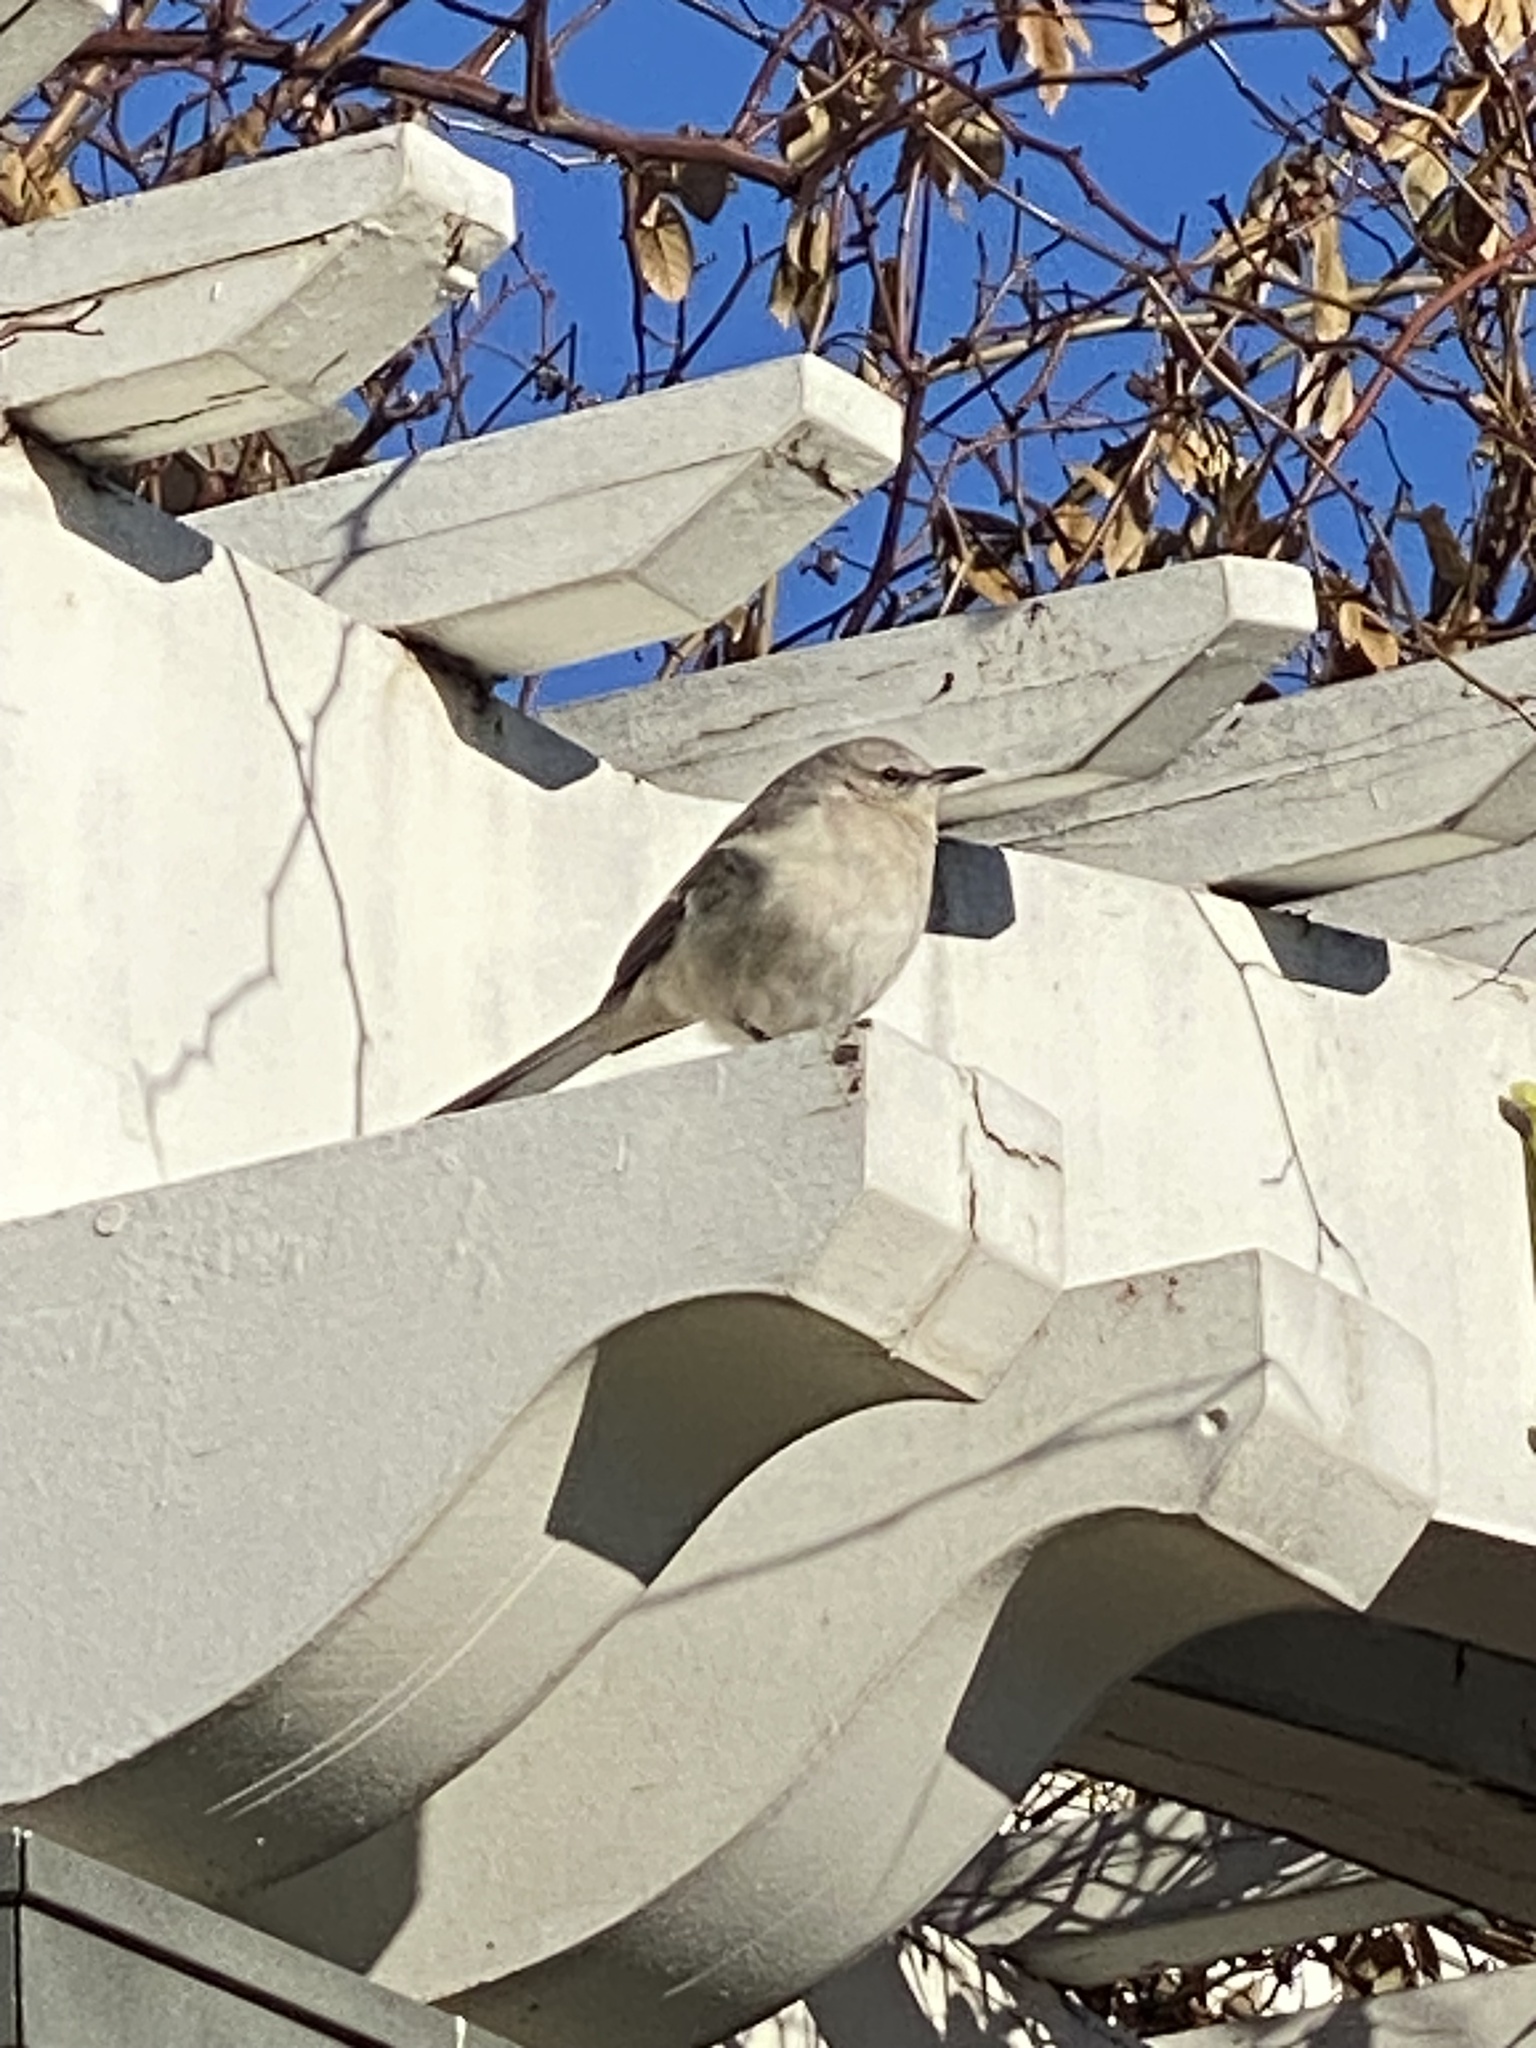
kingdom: Animalia
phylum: Chordata
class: Aves
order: Passeriformes
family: Mimidae
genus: Mimus
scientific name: Mimus polyglottos
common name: Northern mockingbird
